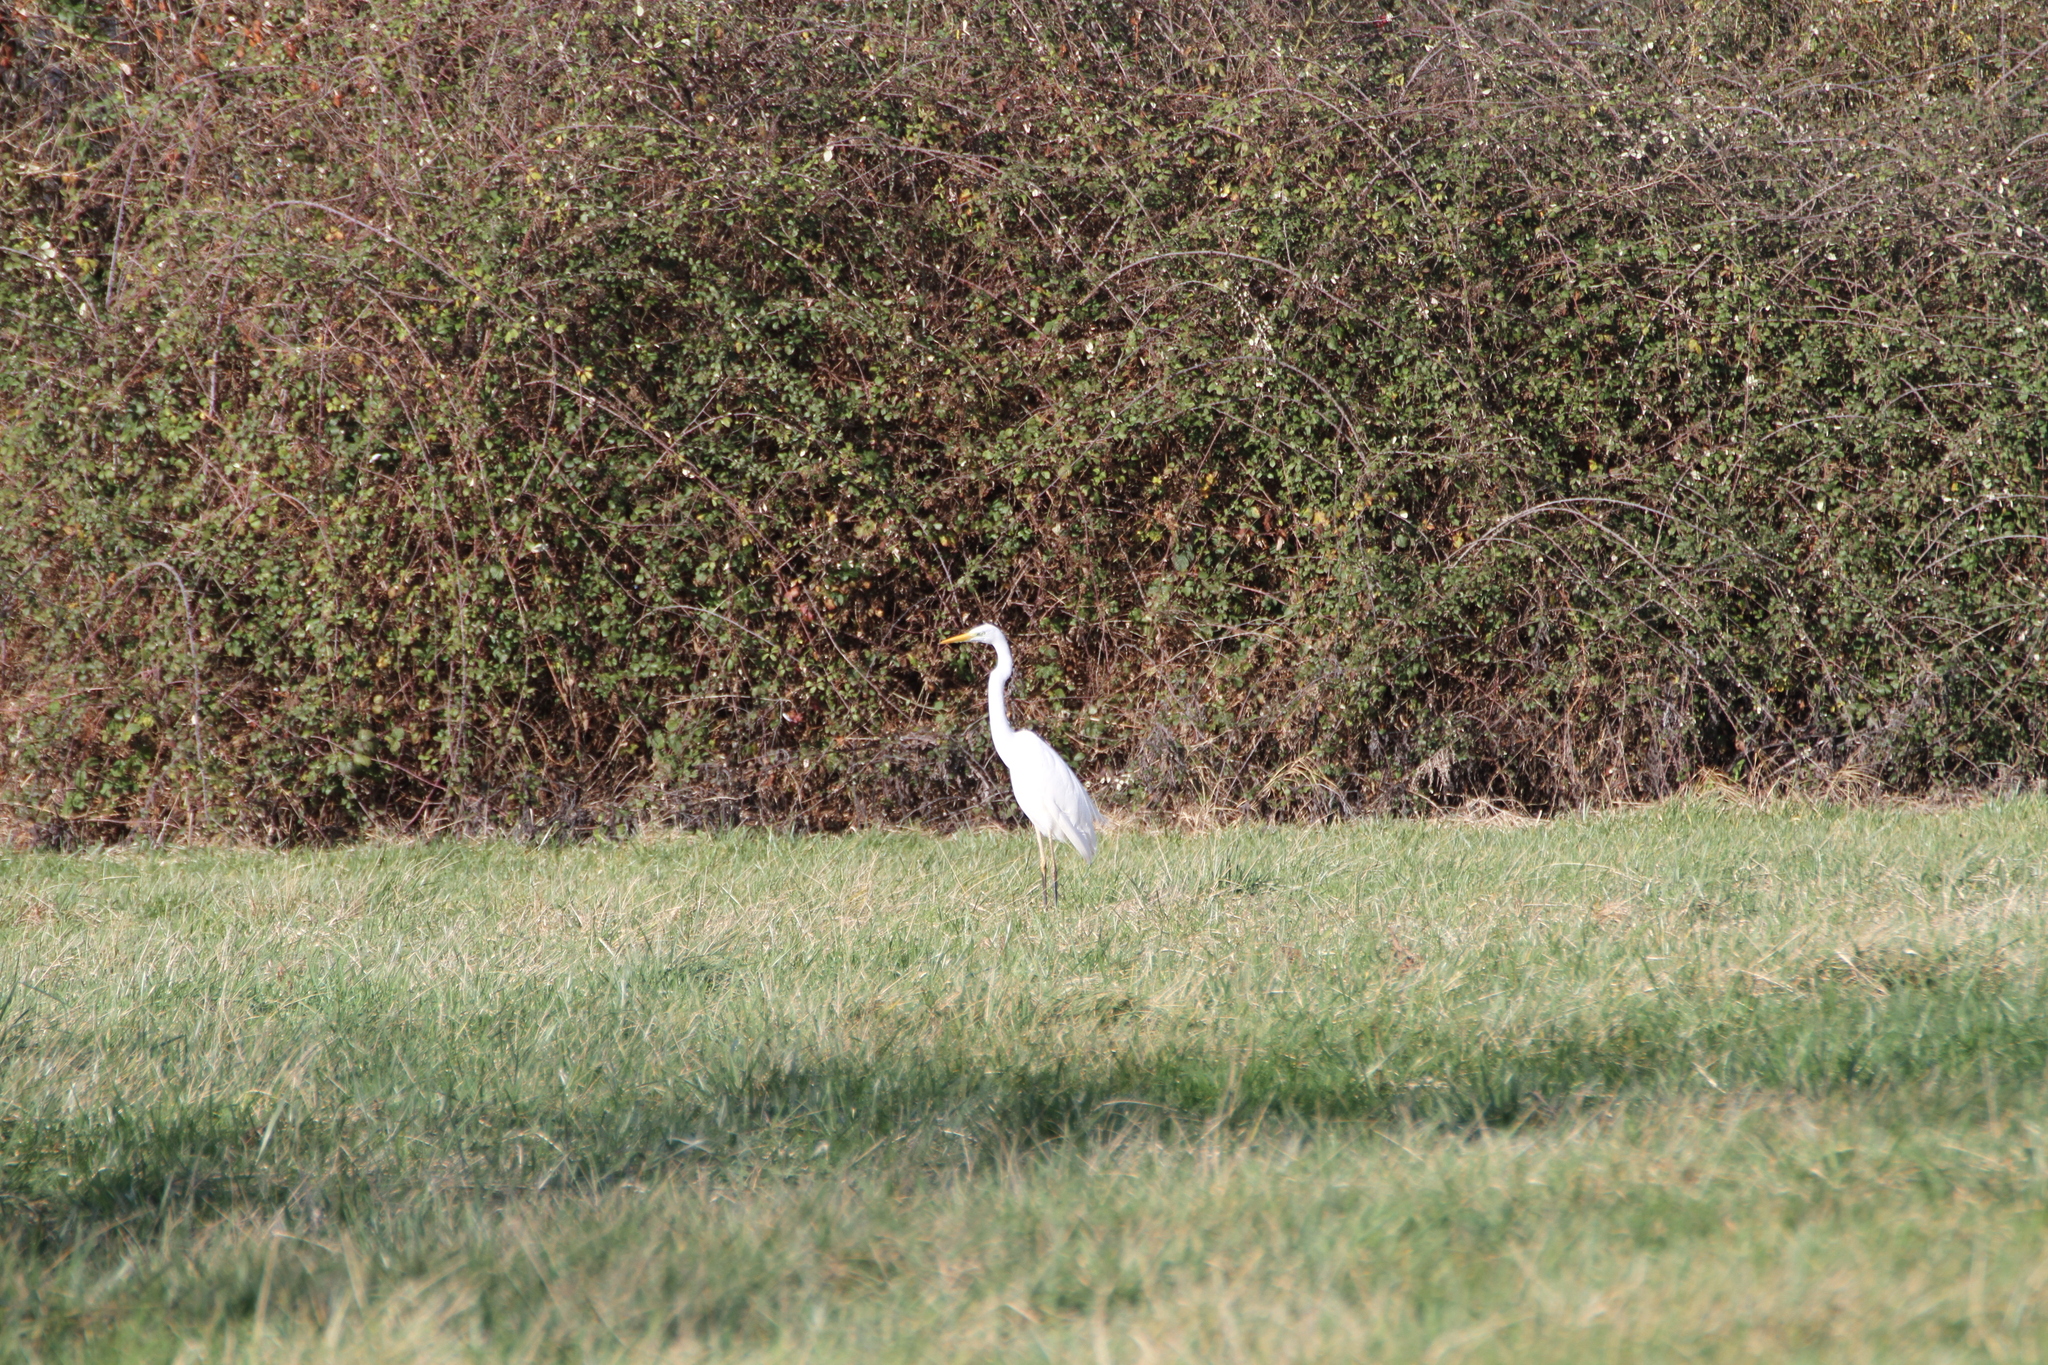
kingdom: Animalia
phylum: Chordata
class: Aves
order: Pelecaniformes
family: Ardeidae
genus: Ardea
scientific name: Ardea alba
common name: Great egret
